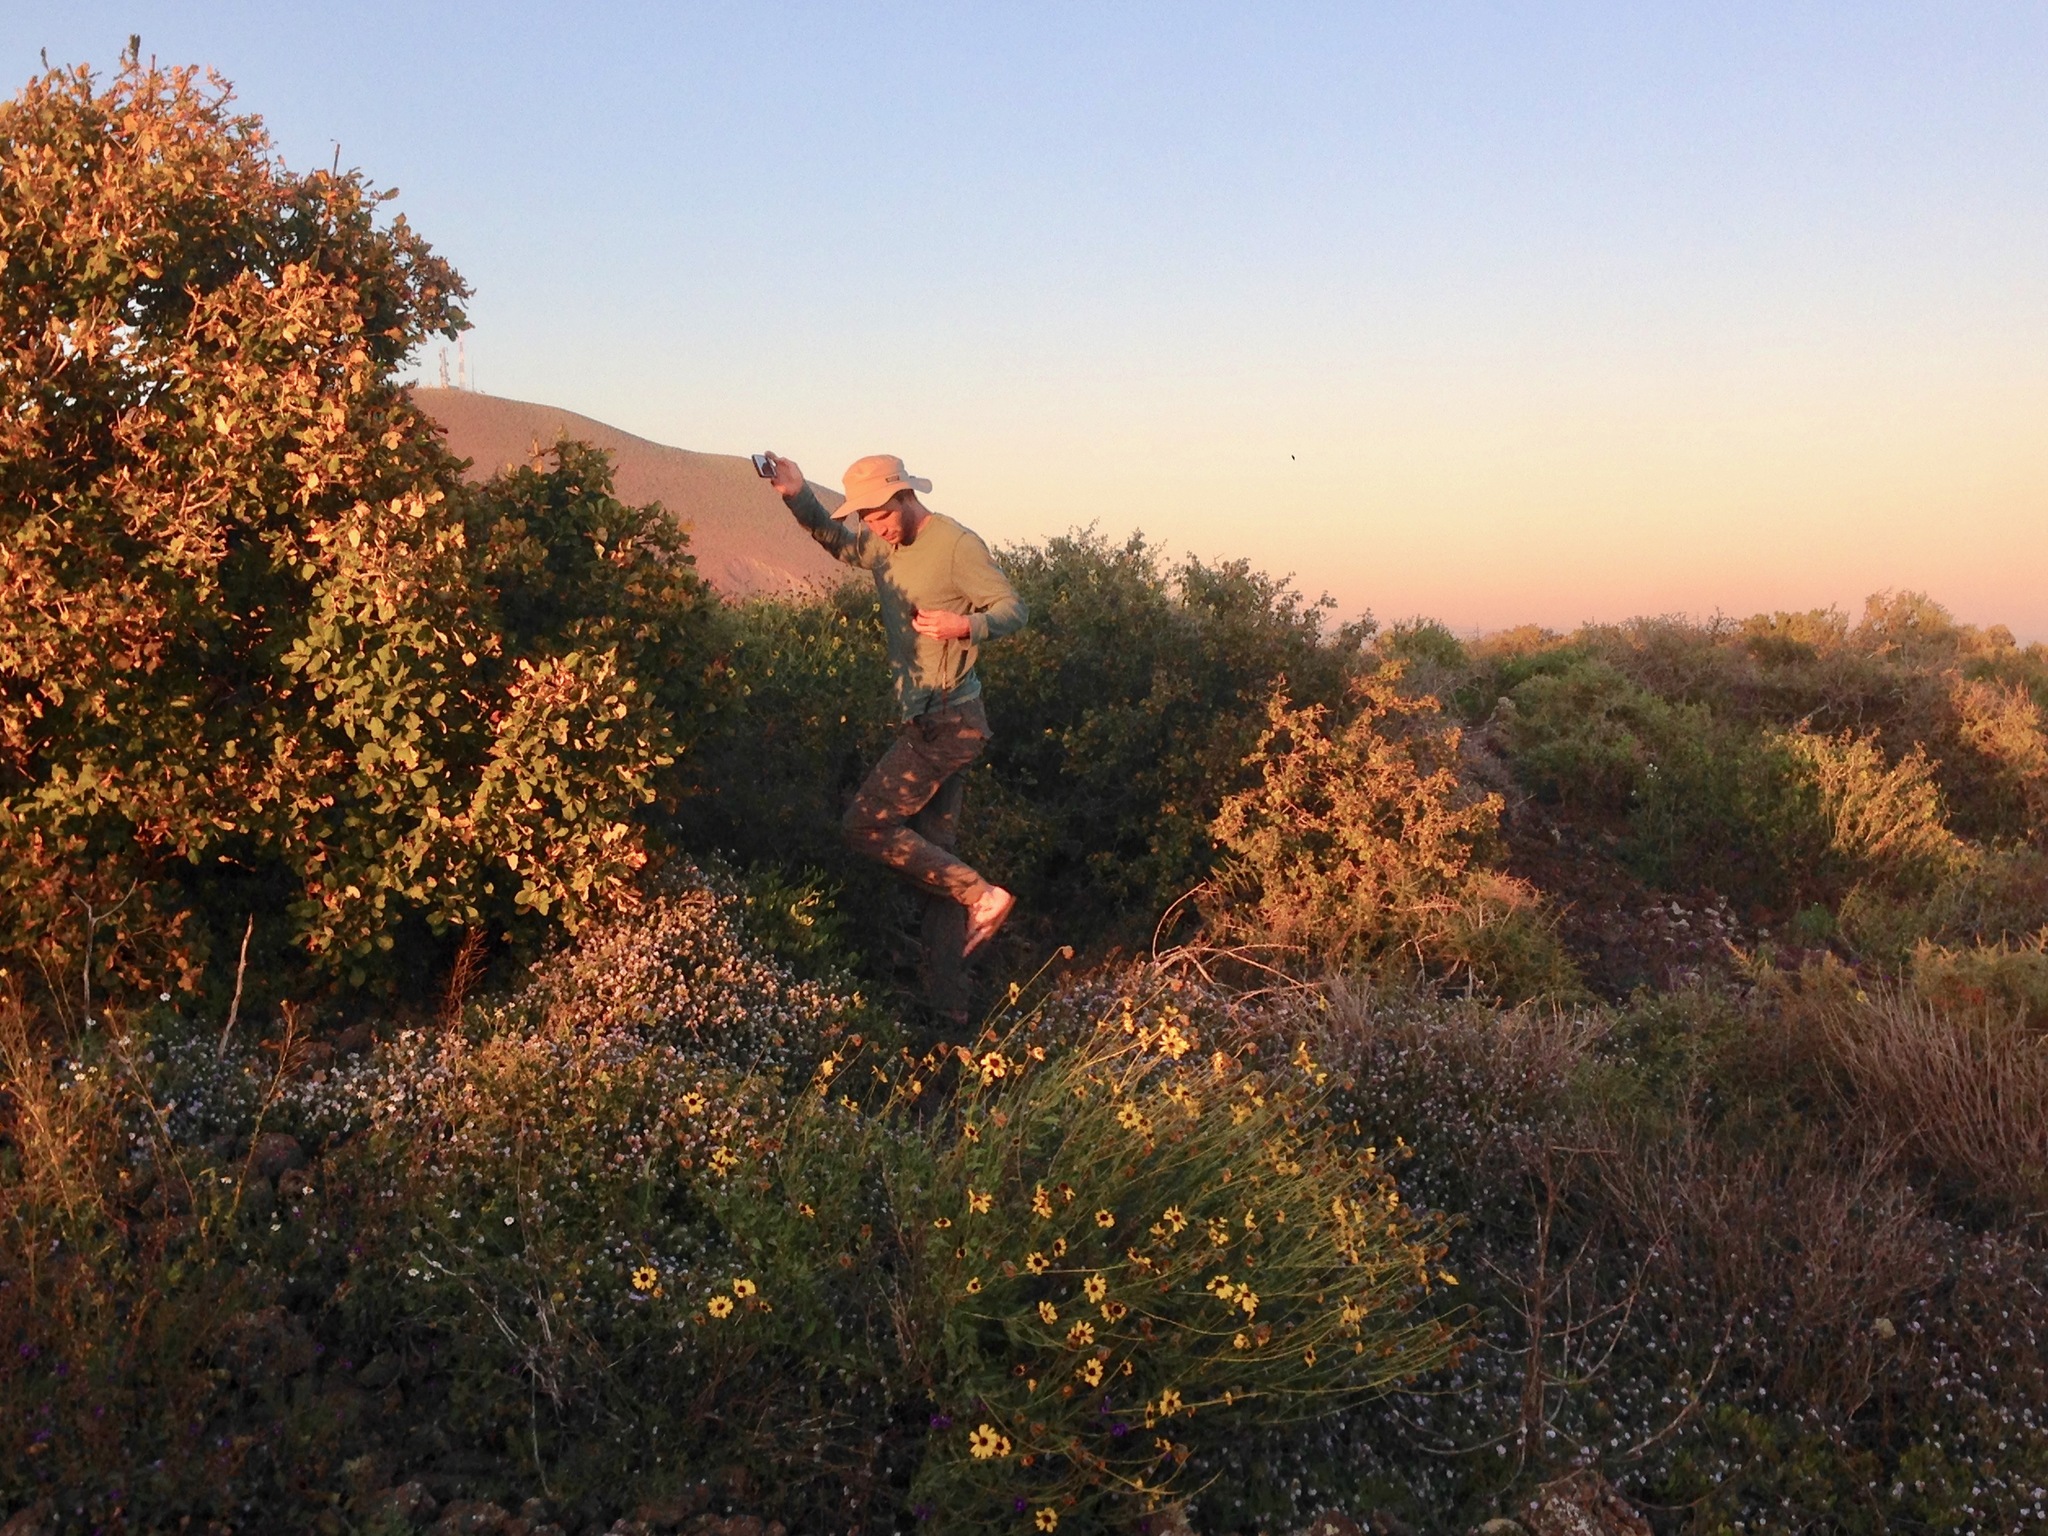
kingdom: Plantae
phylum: Tracheophyta
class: Magnoliopsida
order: Asterales
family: Asteraceae
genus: Encelia
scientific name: Encelia californica
